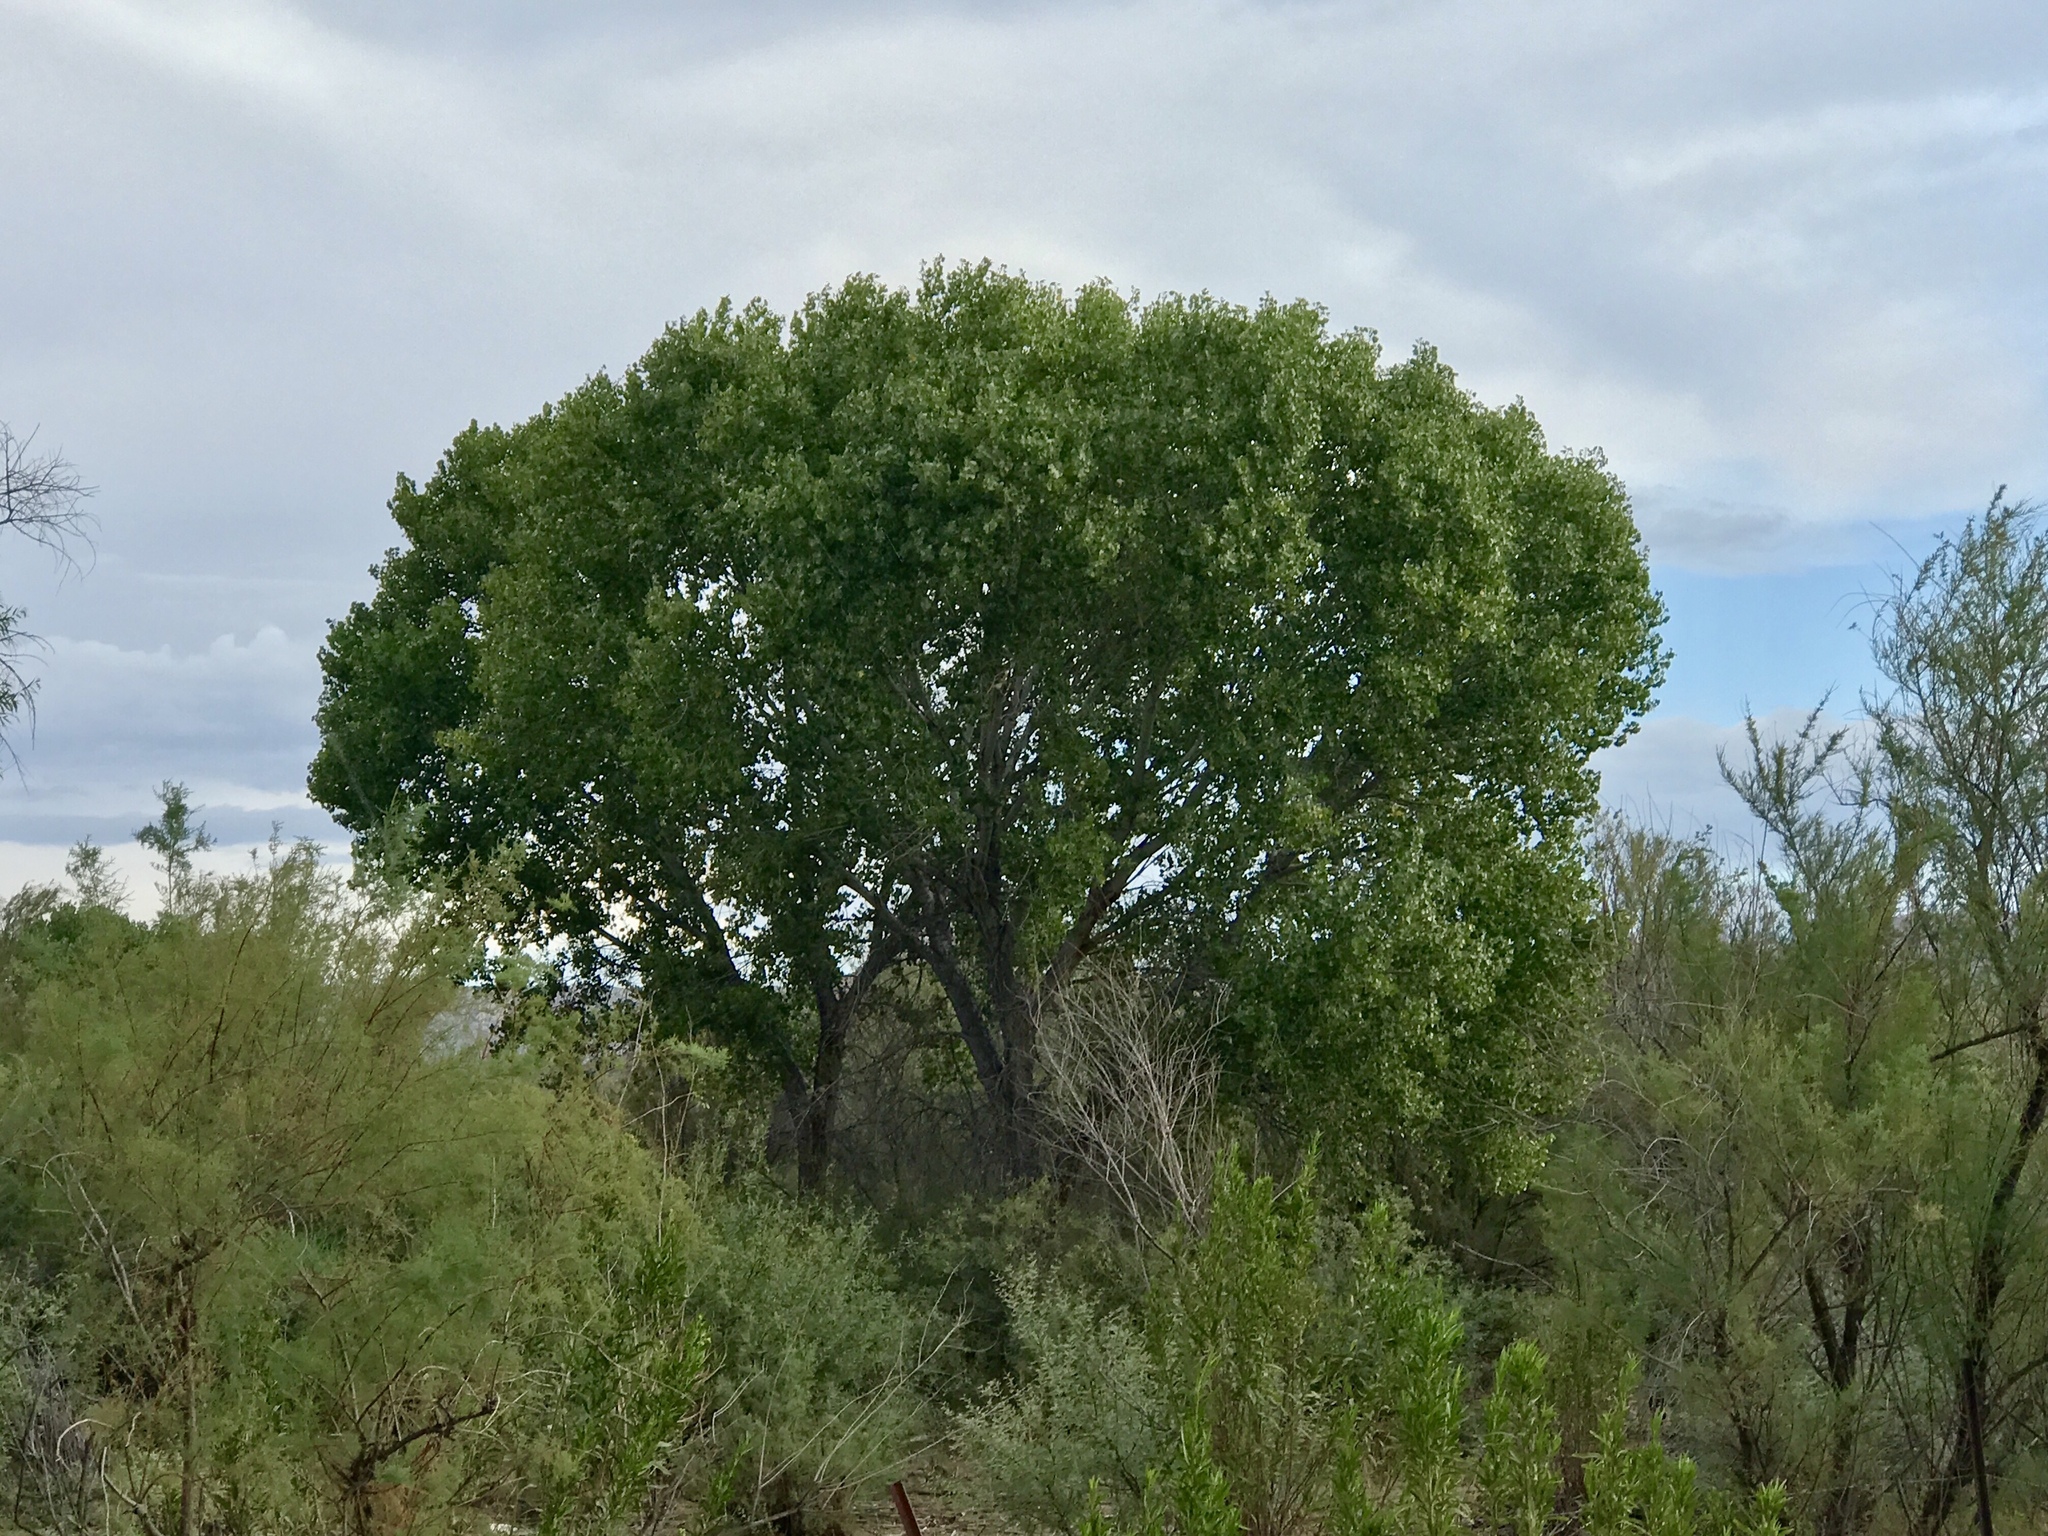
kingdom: Plantae
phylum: Tracheophyta
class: Magnoliopsida
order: Malpighiales
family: Salicaceae
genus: Populus
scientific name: Populus fremontii
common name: Fremont's cottonwood
